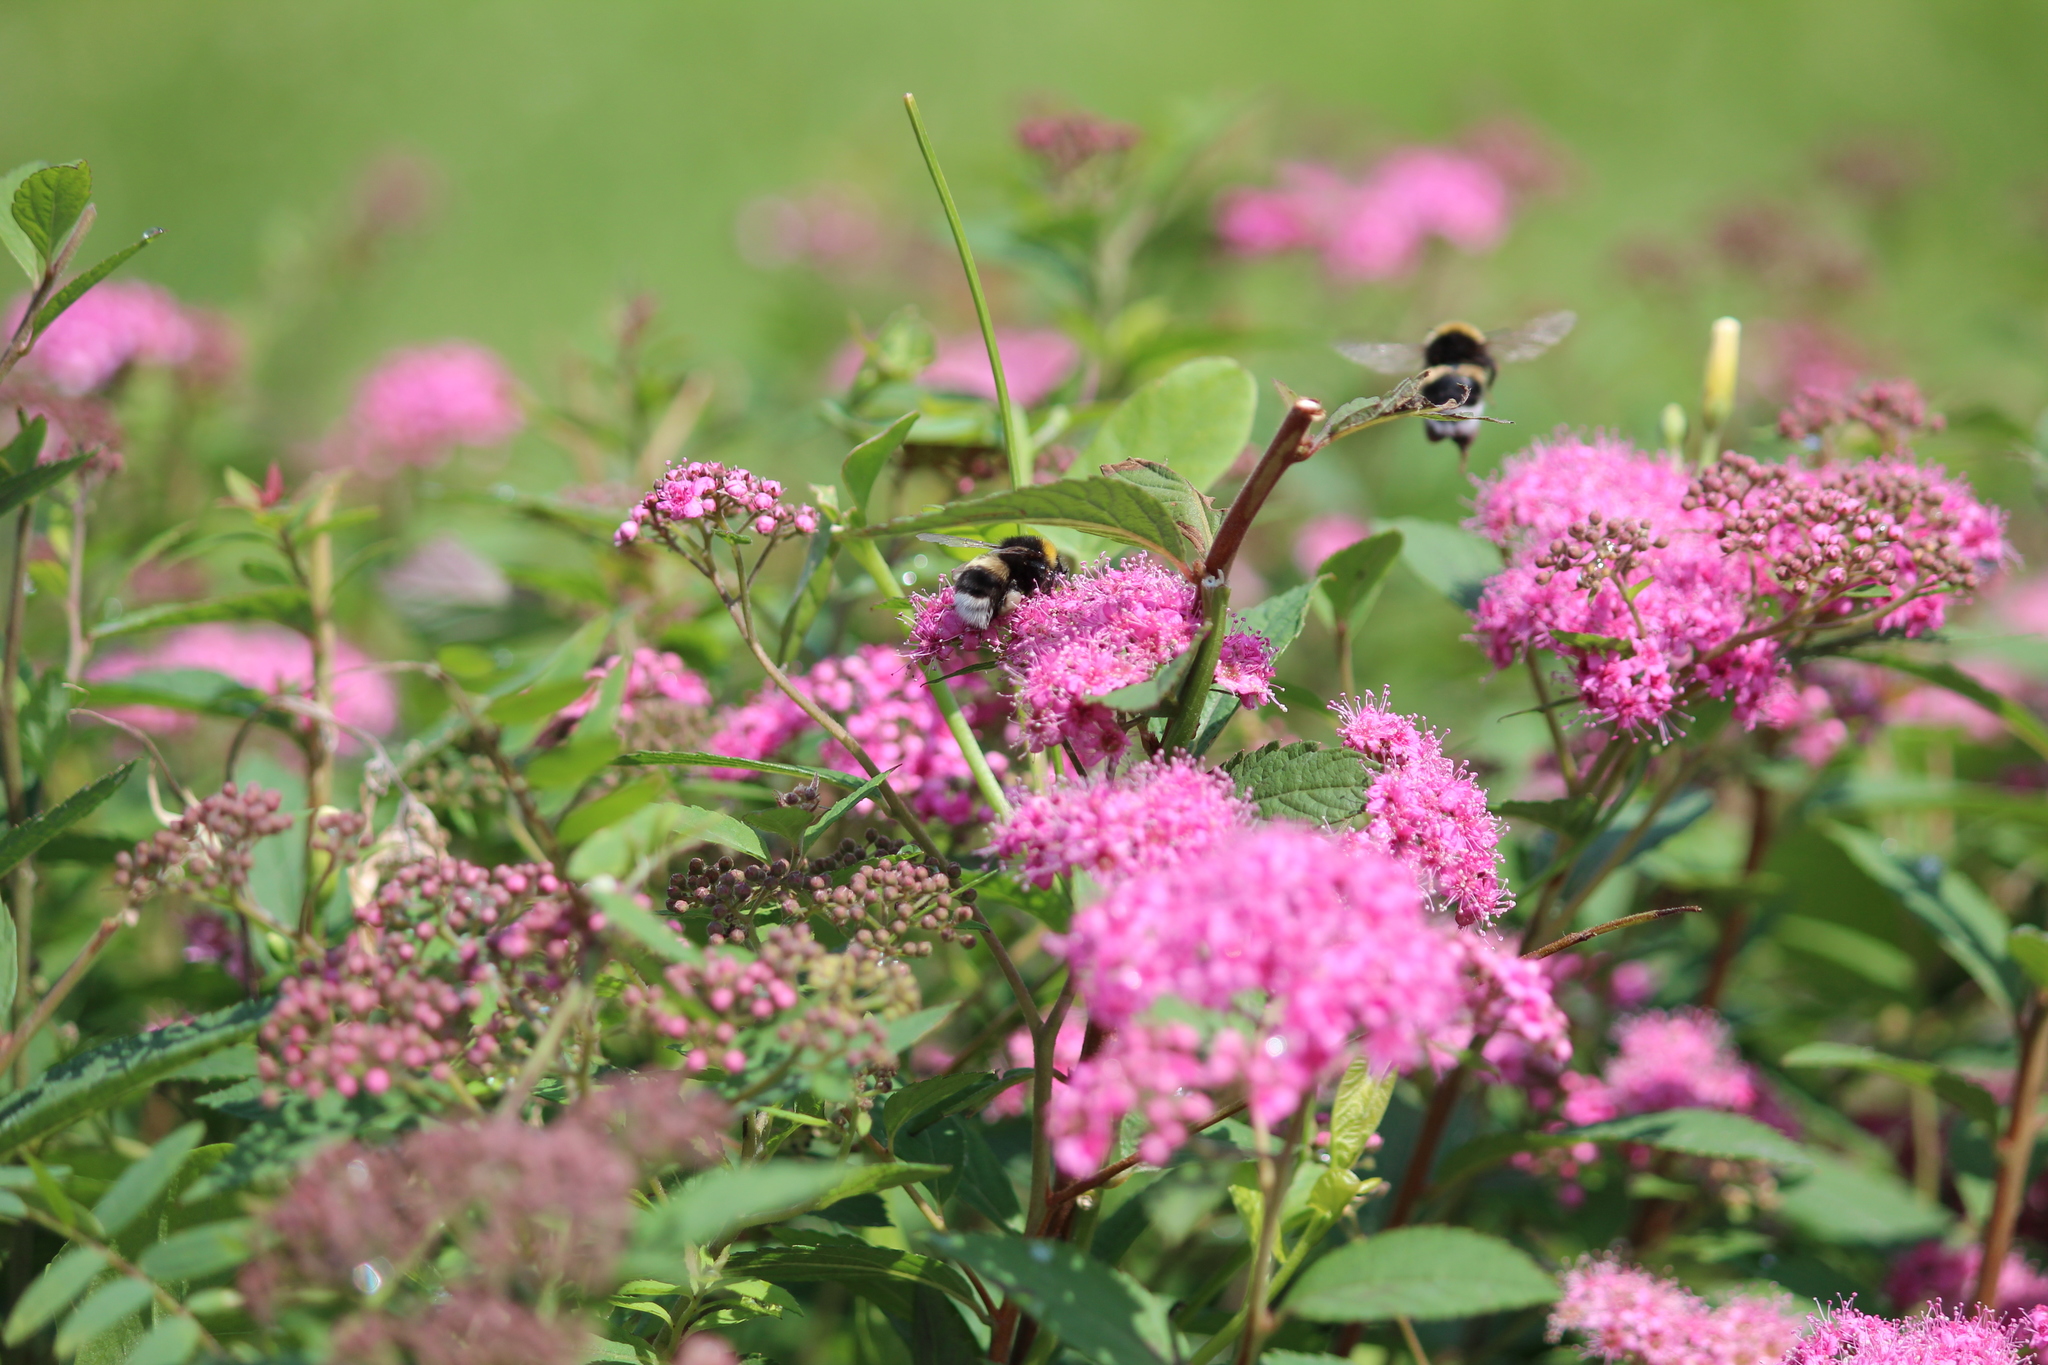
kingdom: Animalia
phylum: Arthropoda
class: Insecta
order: Hymenoptera
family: Apidae
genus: Bombus
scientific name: Bombus
